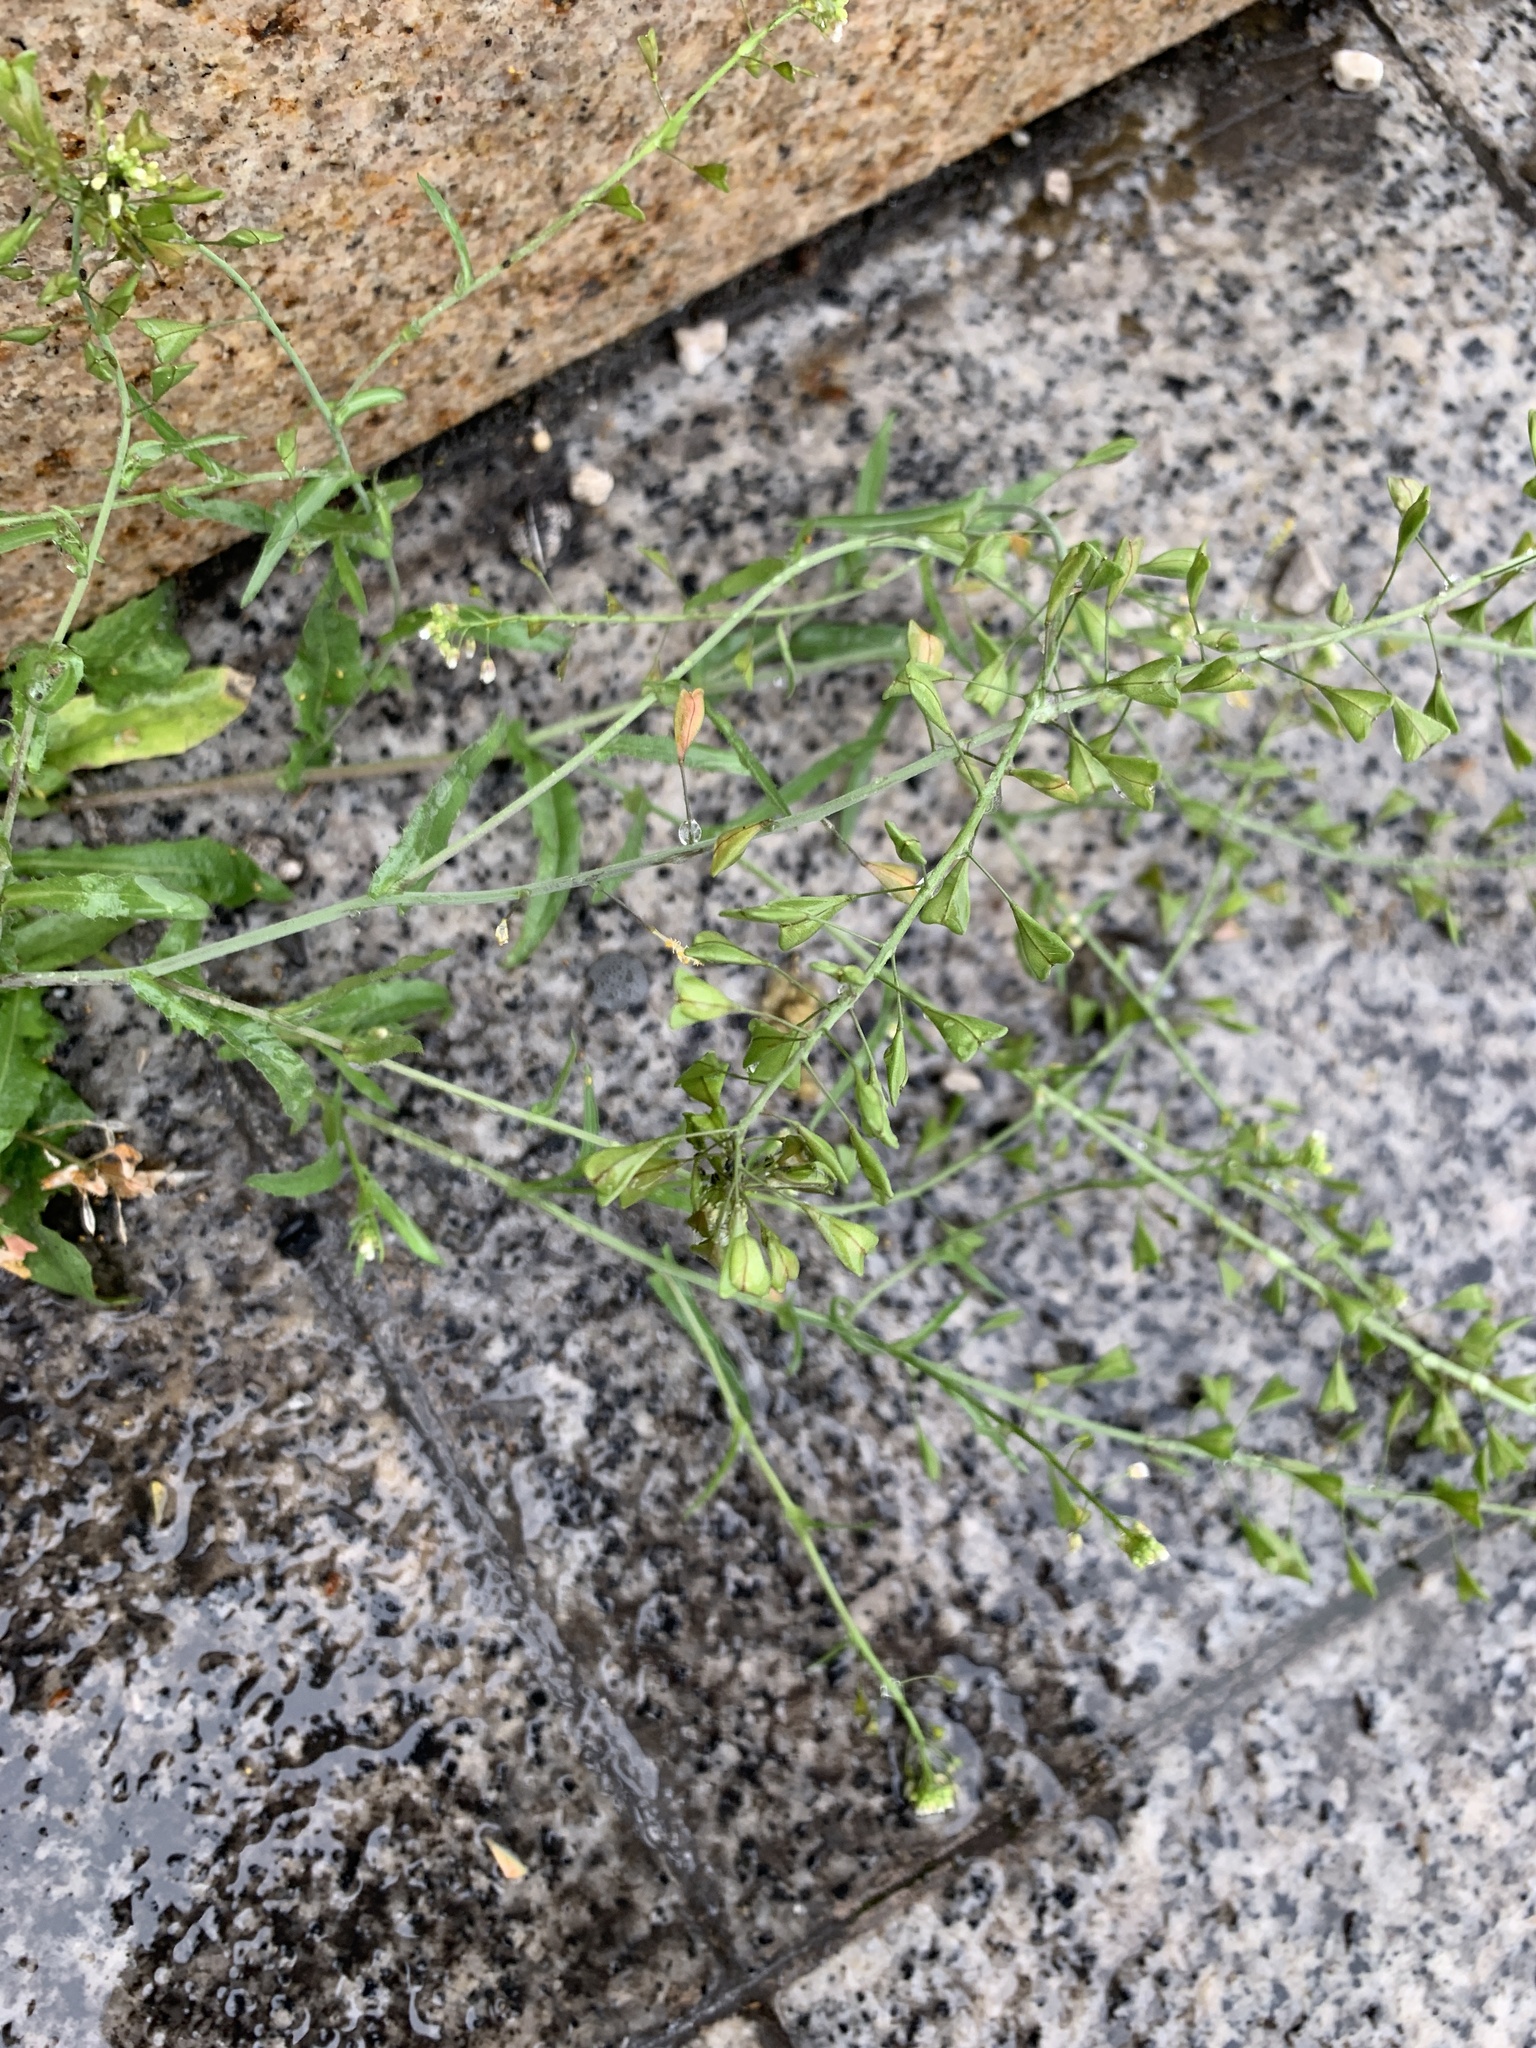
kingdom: Plantae
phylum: Tracheophyta
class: Magnoliopsida
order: Brassicales
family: Brassicaceae
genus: Capsella
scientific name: Capsella bursa-pastoris
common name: Shepherd's purse
